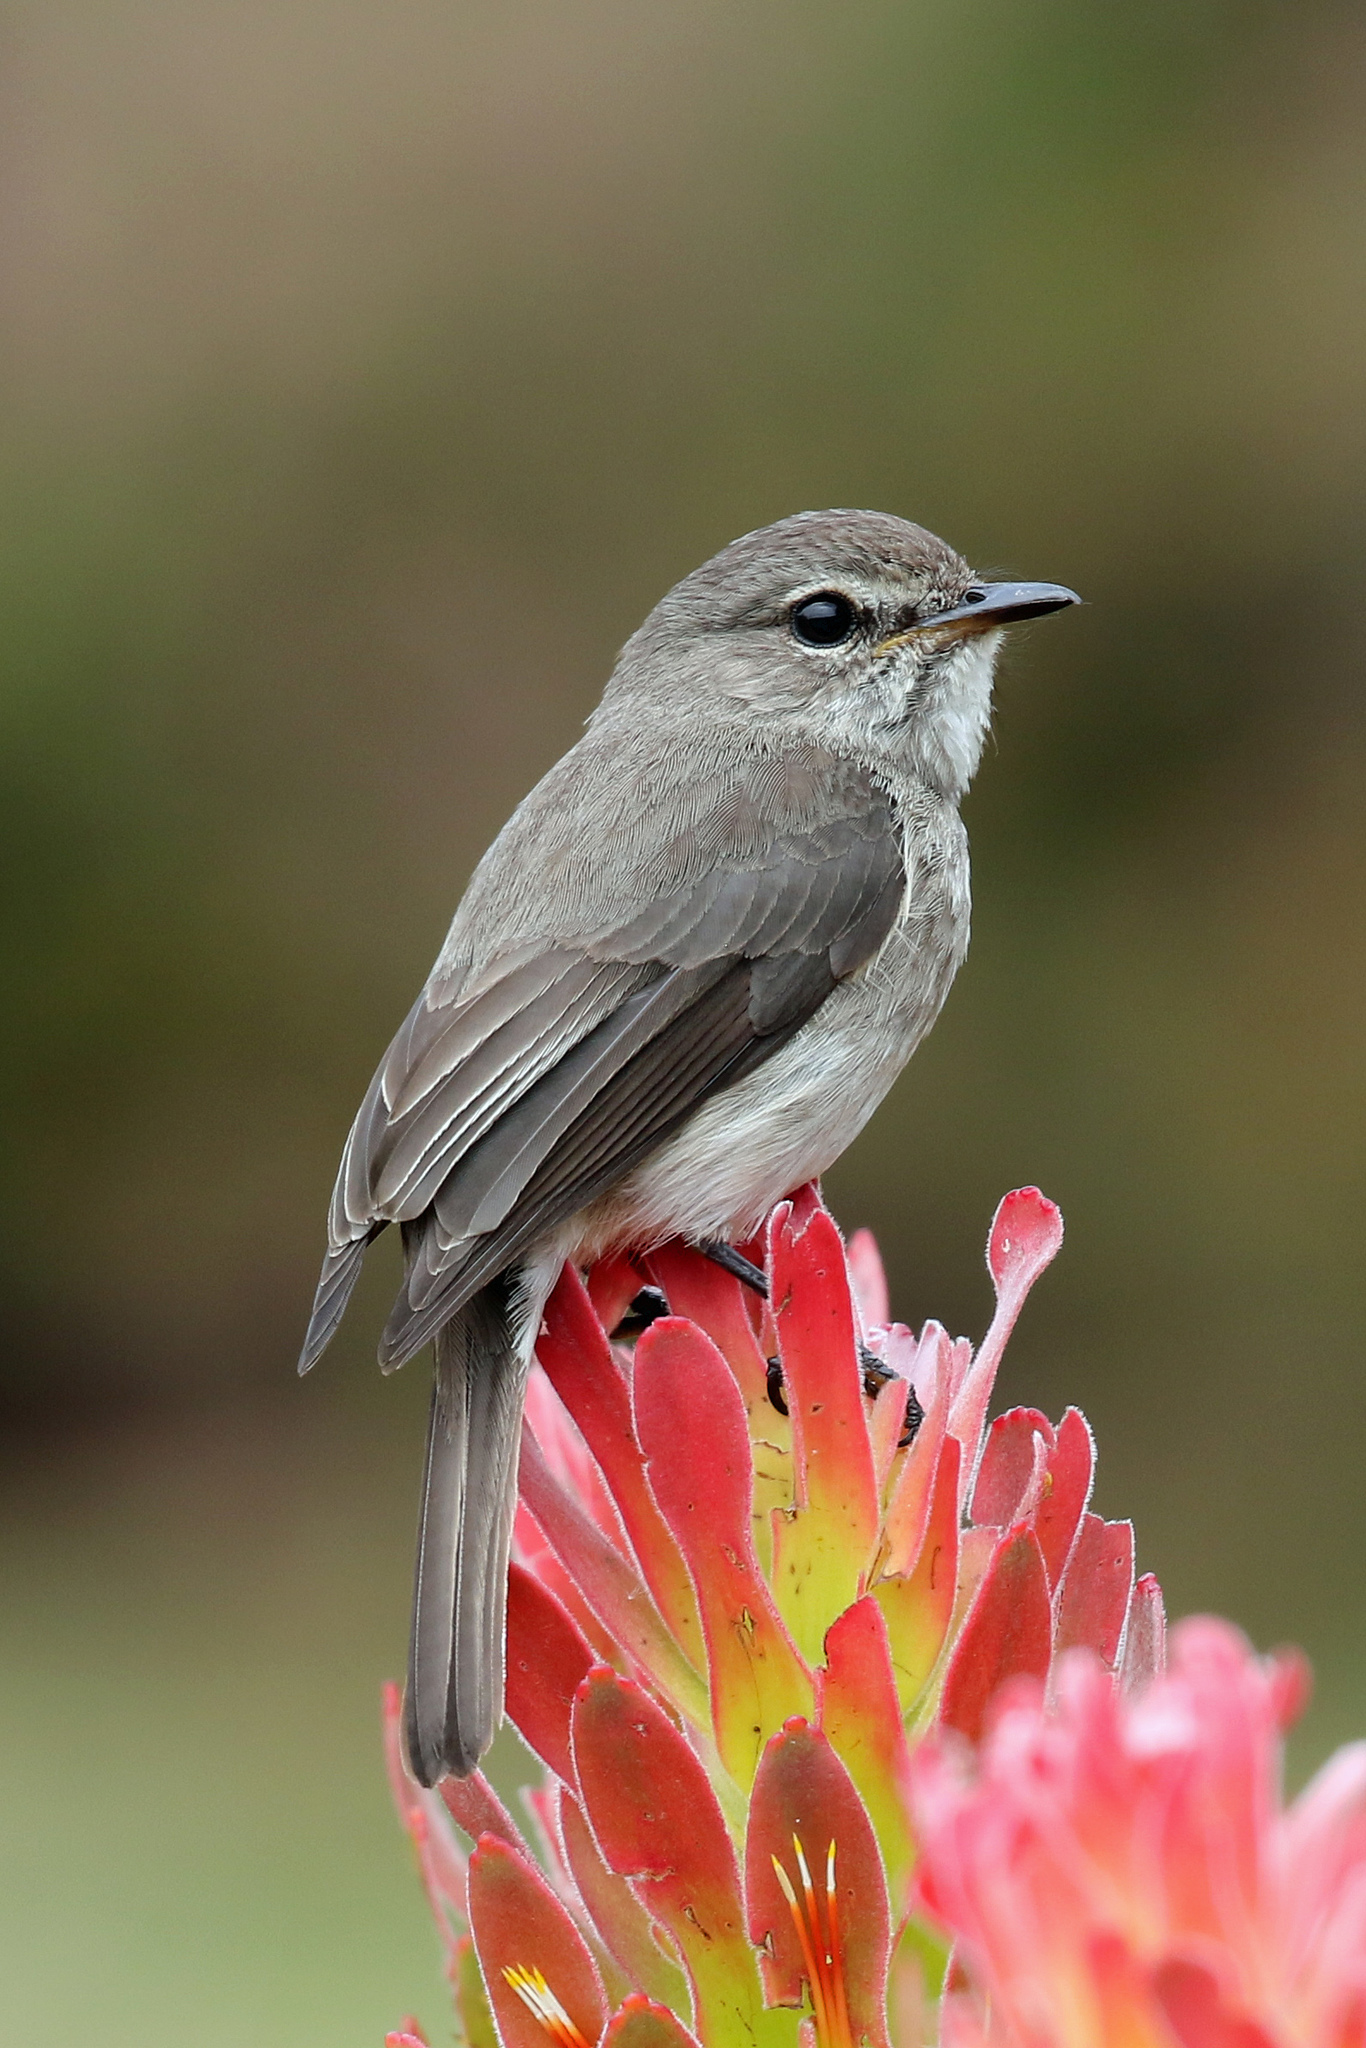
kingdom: Animalia
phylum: Chordata
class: Aves
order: Passeriformes
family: Muscicapidae
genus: Muscicapa
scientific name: Muscicapa adusta
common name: African dusky flycatcher
